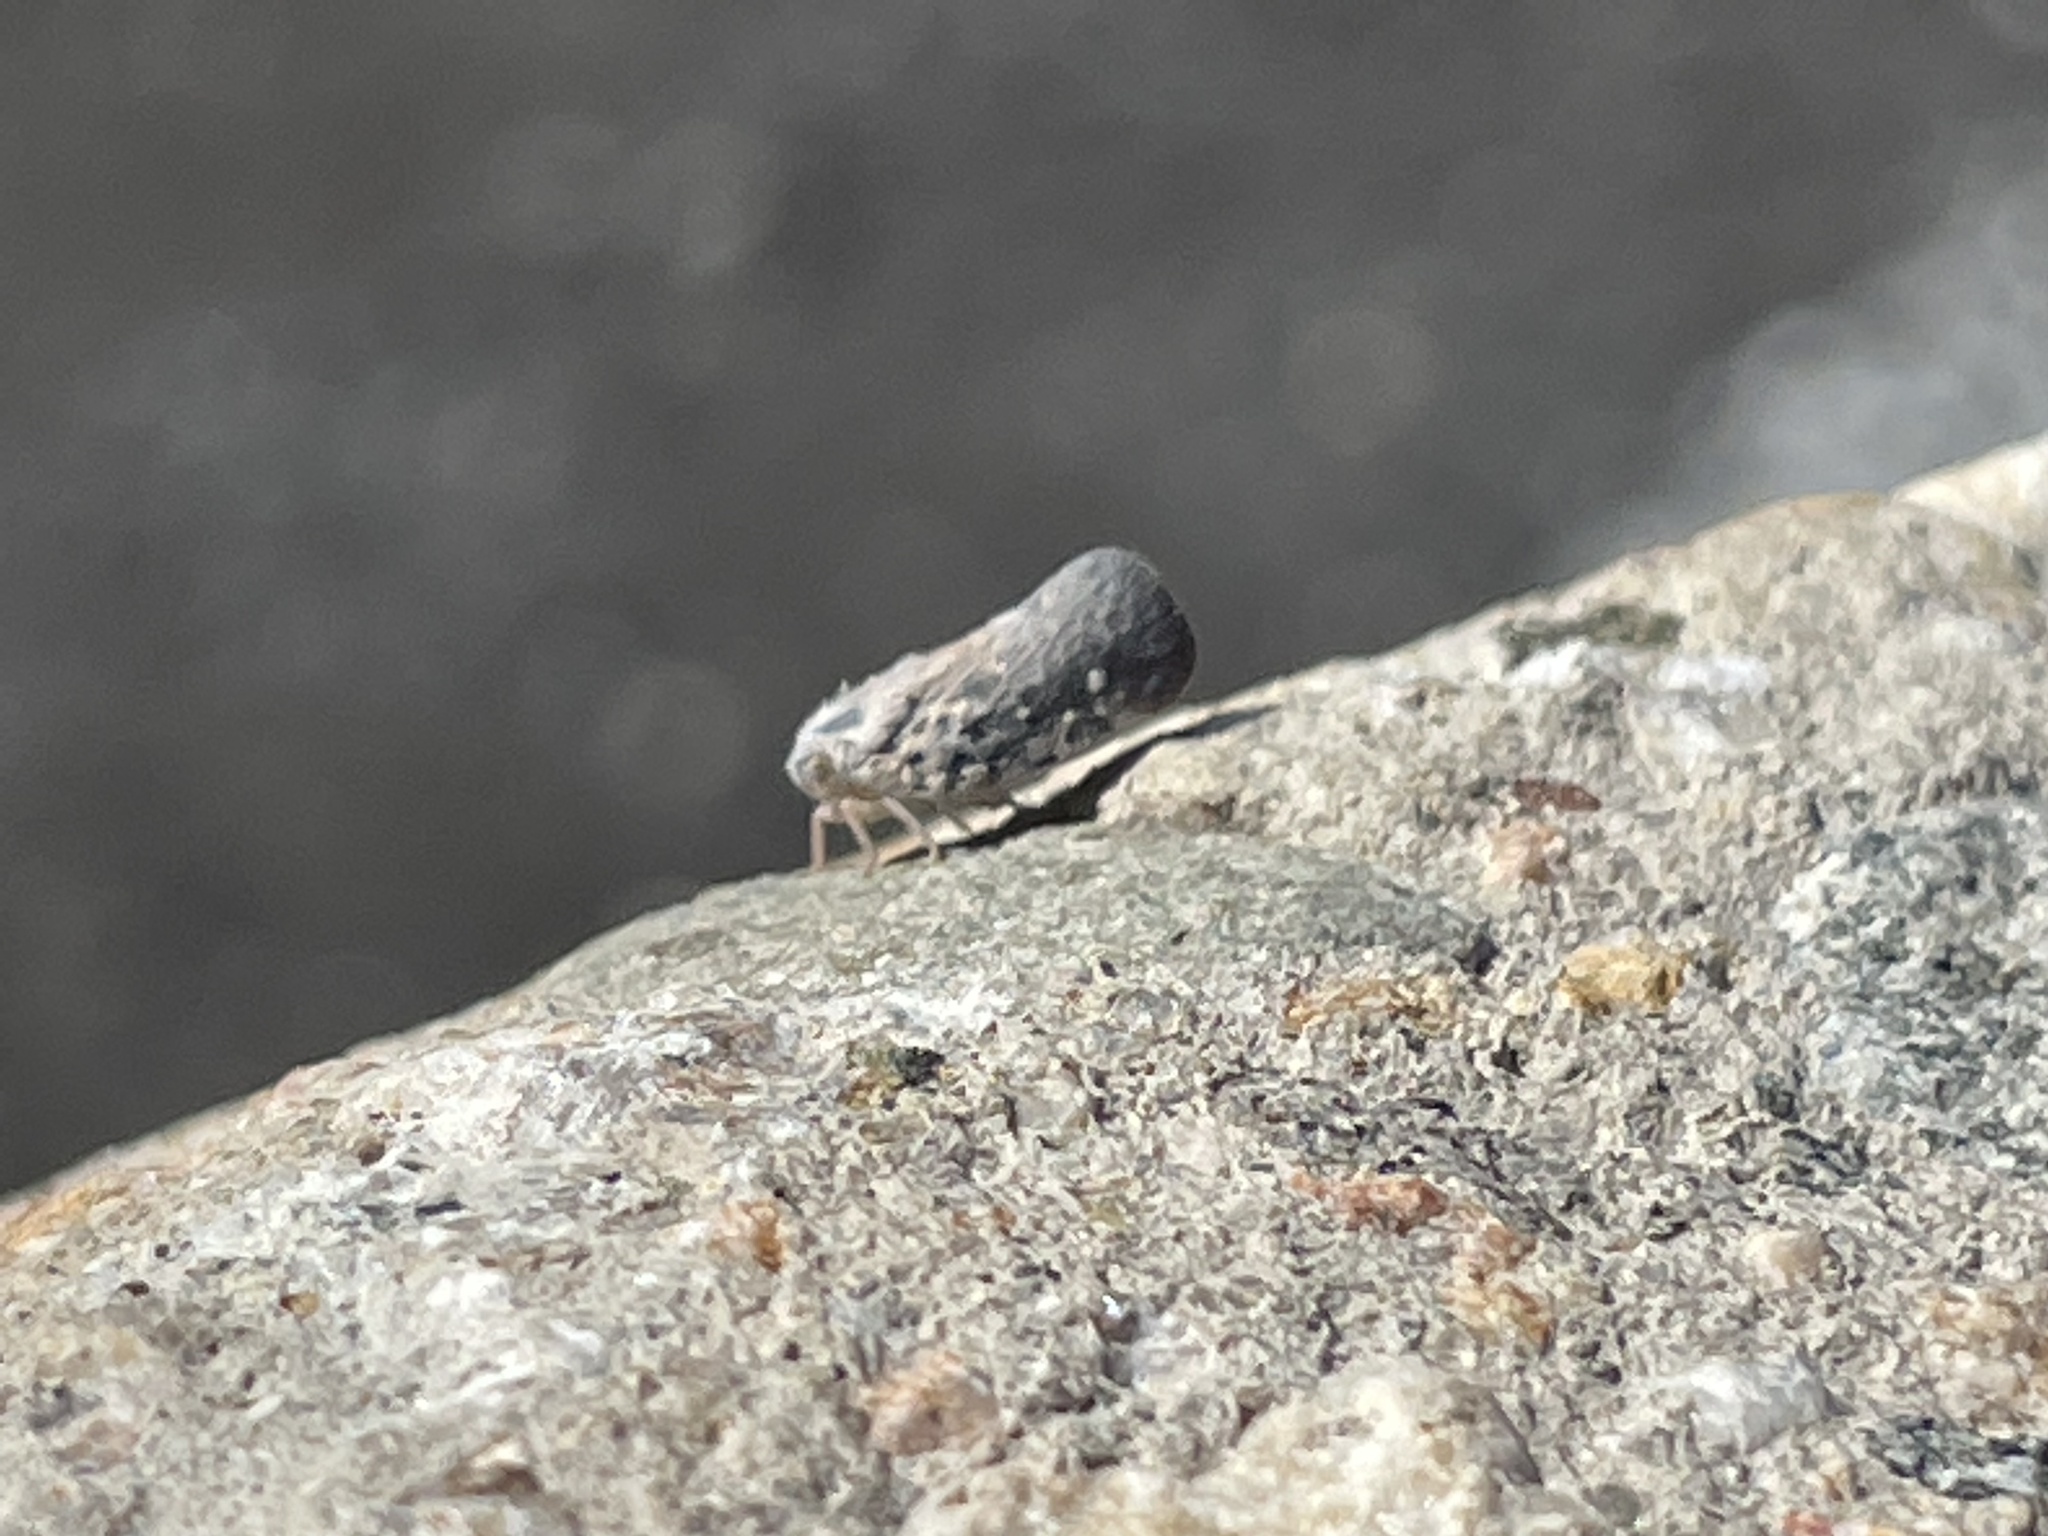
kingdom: Animalia
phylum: Arthropoda
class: Insecta
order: Hemiptera
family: Flatidae
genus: Metcalfa
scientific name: Metcalfa pruinosa
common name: Citrus flatid planthopper
